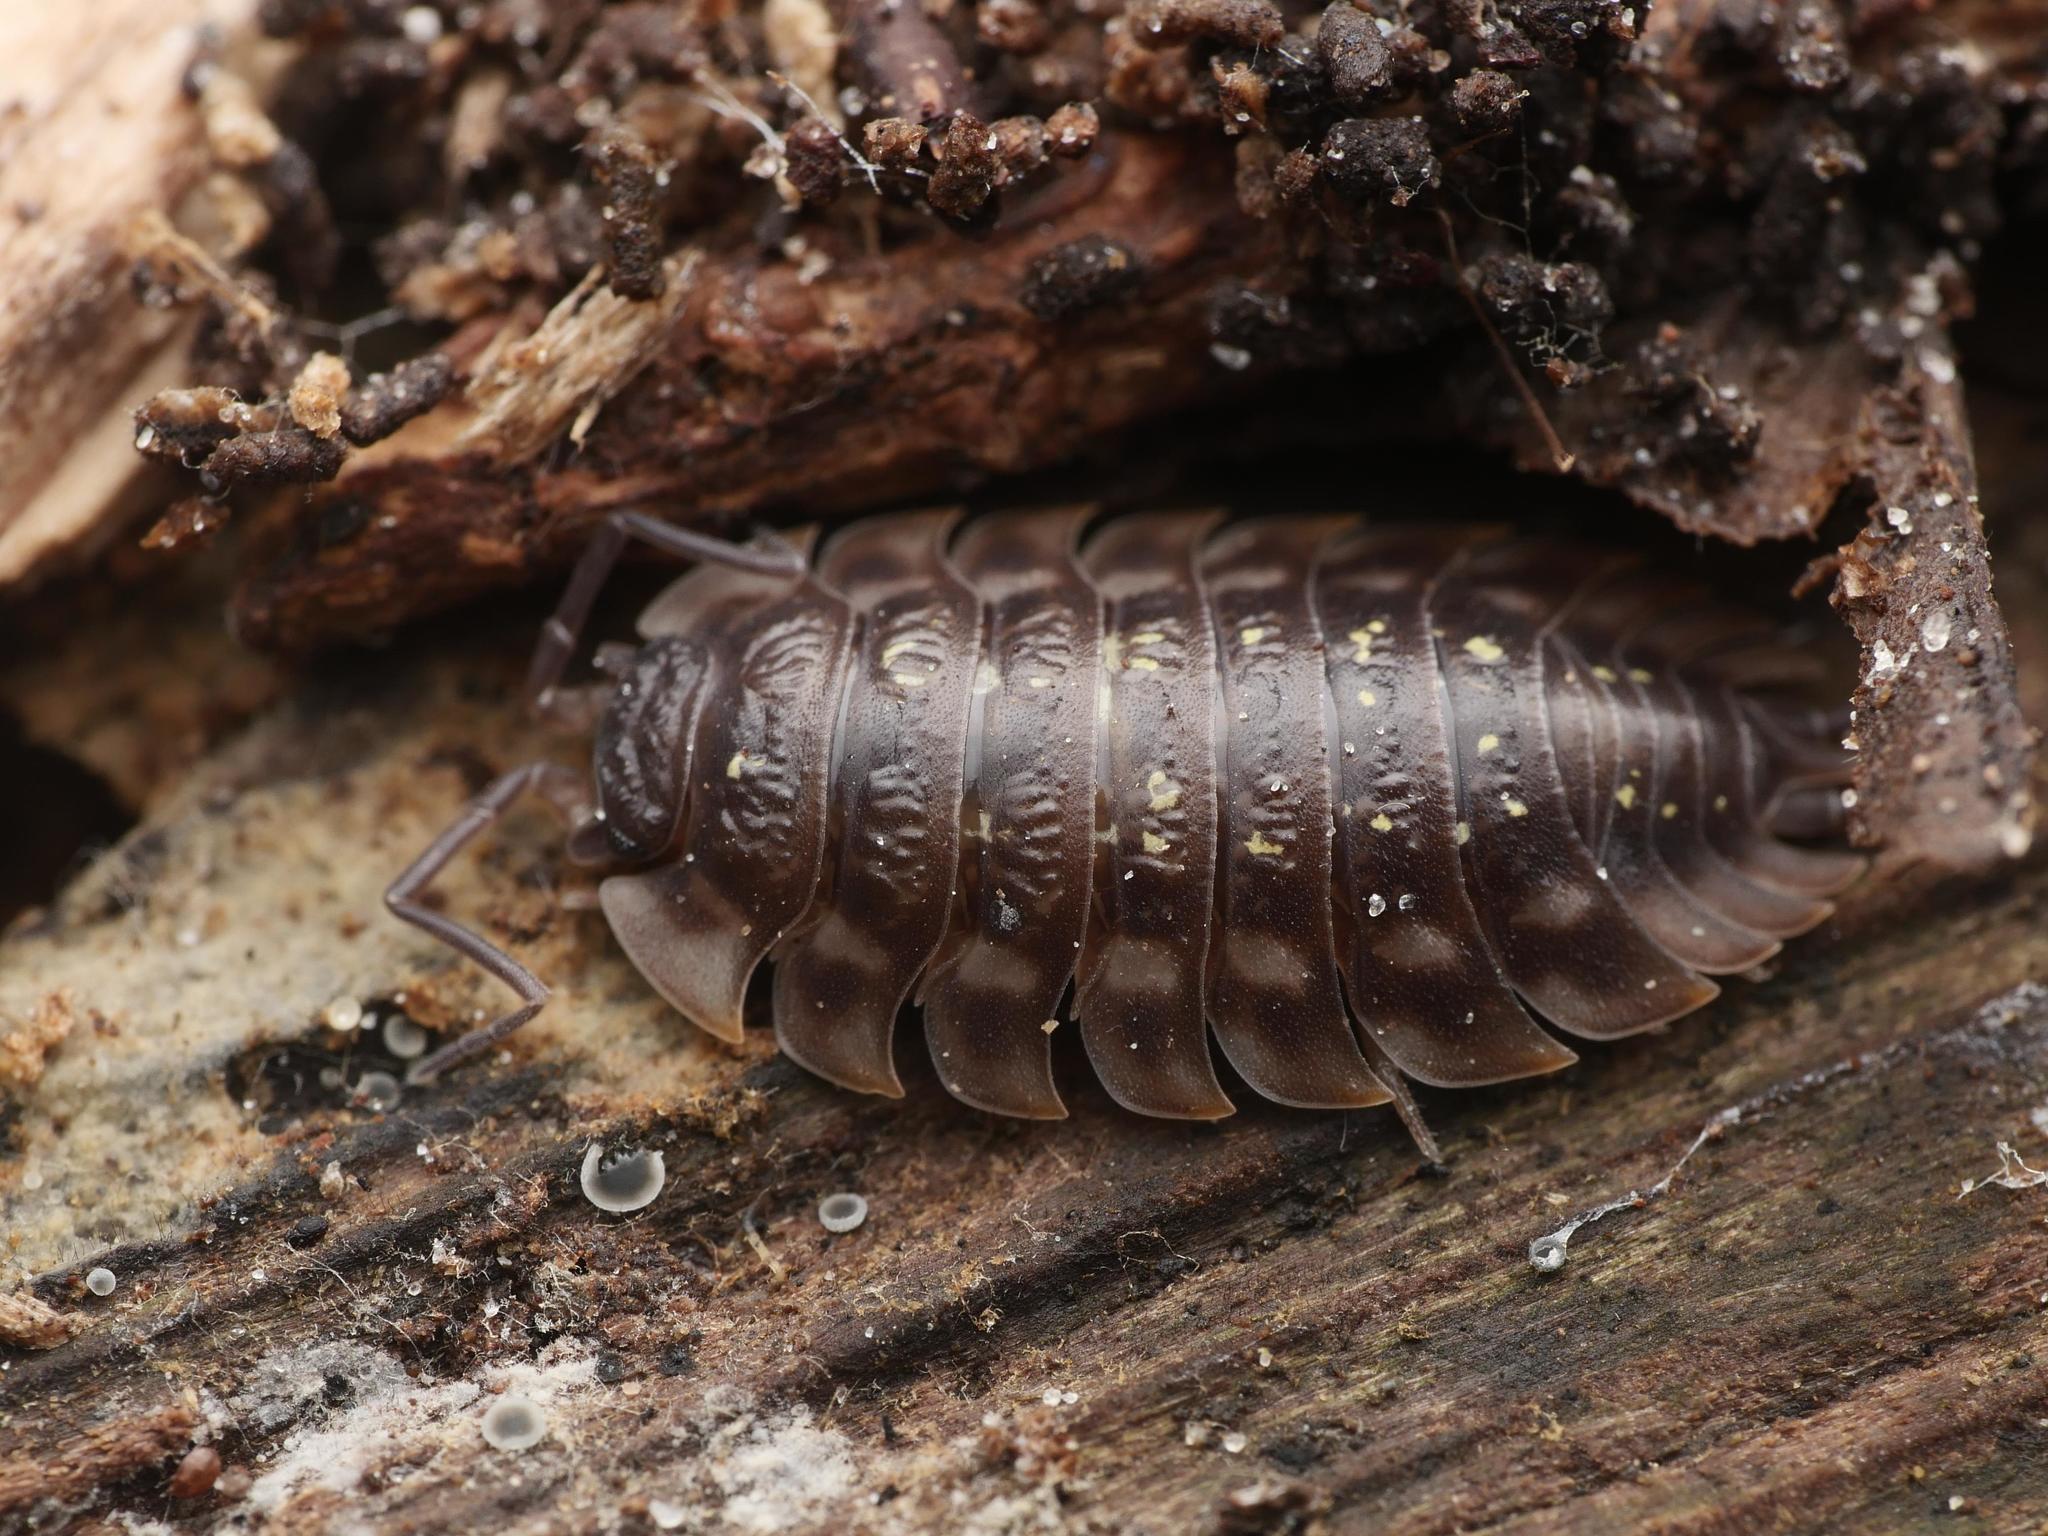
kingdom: Animalia
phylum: Arthropoda
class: Malacostraca
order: Isopoda
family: Oniscidae
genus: Oniscus
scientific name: Oniscus asellus
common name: Common shiny woodlouse
